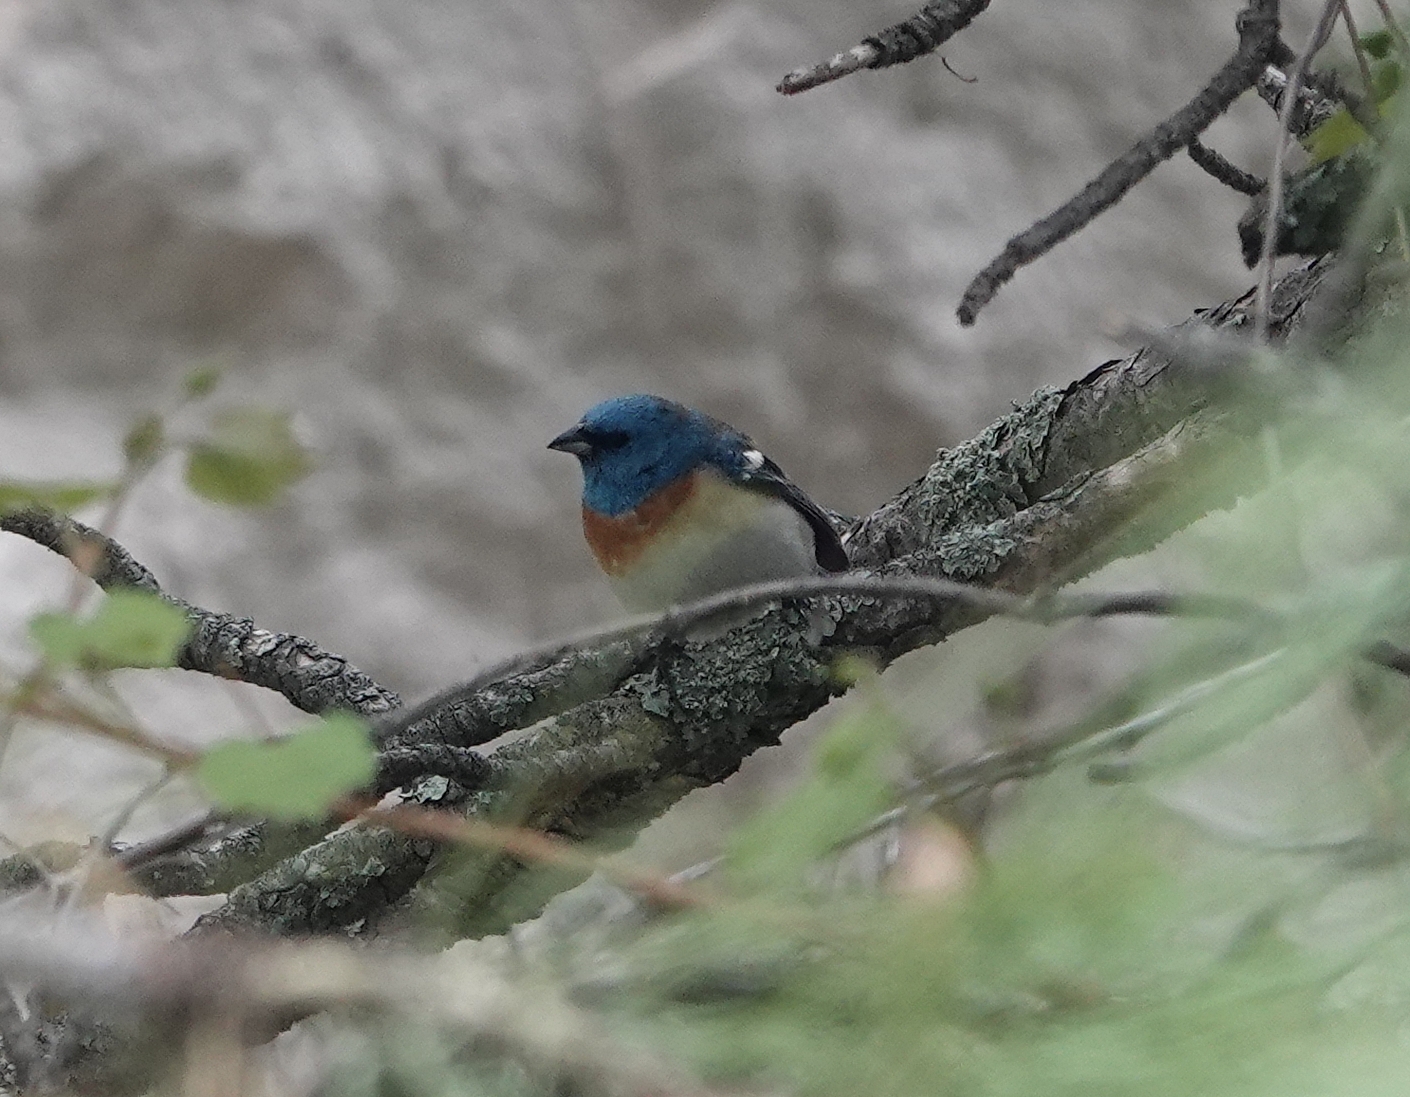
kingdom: Animalia
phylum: Chordata
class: Aves
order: Passeriformes
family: Cardinalidae
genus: Passerina
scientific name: Passerina amoena
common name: Lazuli bunting
